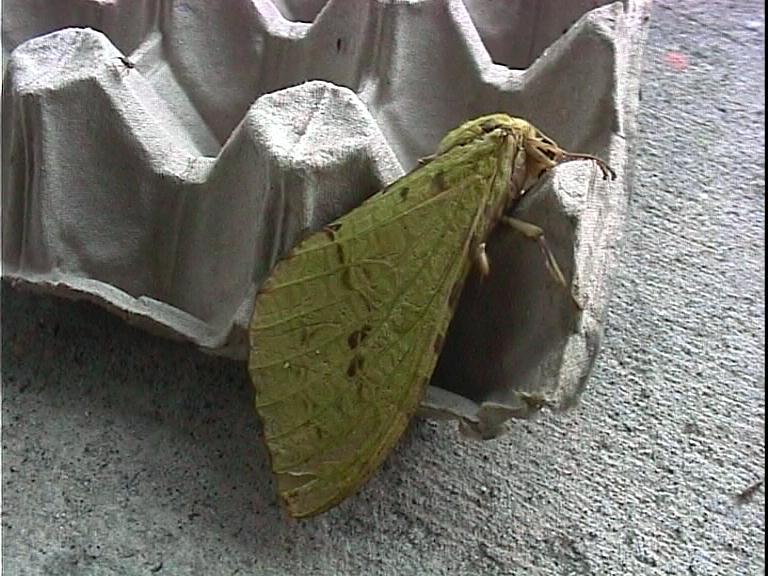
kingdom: Animalia
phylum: Arthropoda
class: Insecta
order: Lepidoptera
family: Hepialidae
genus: Aenetus
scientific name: Aenetus virescens
